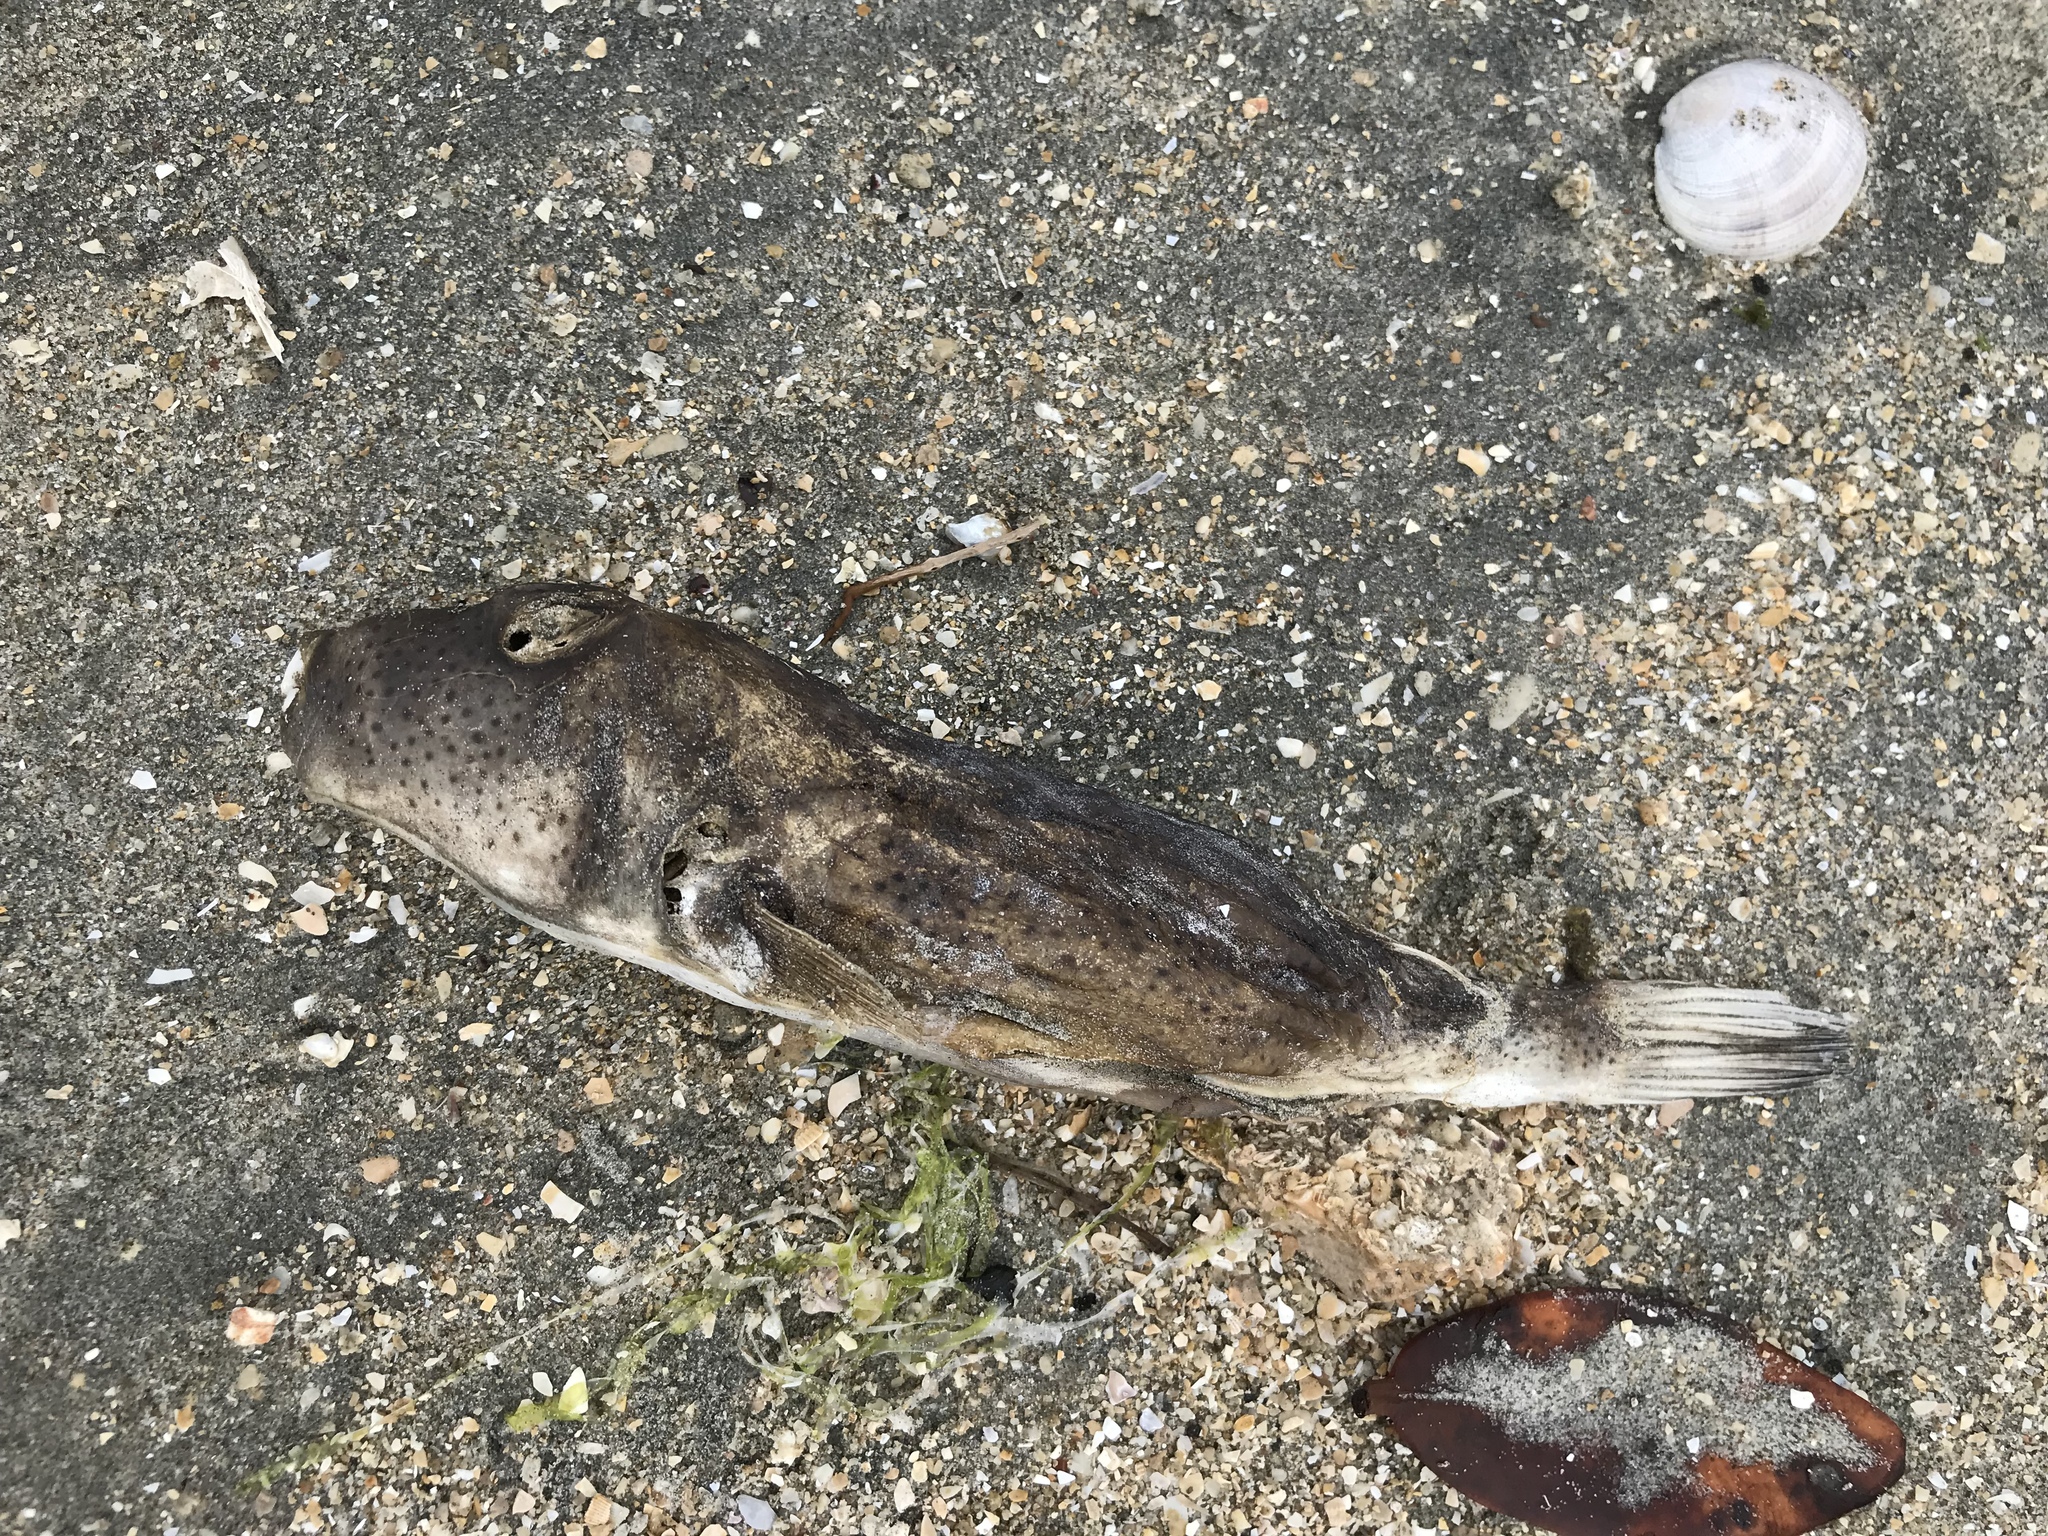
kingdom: Animalia
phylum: Chordata
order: Tetraodontiformes
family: Tetraodontidae
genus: Sphoeroides
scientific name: Sphoeroides annulatus
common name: Bullseye puffer
